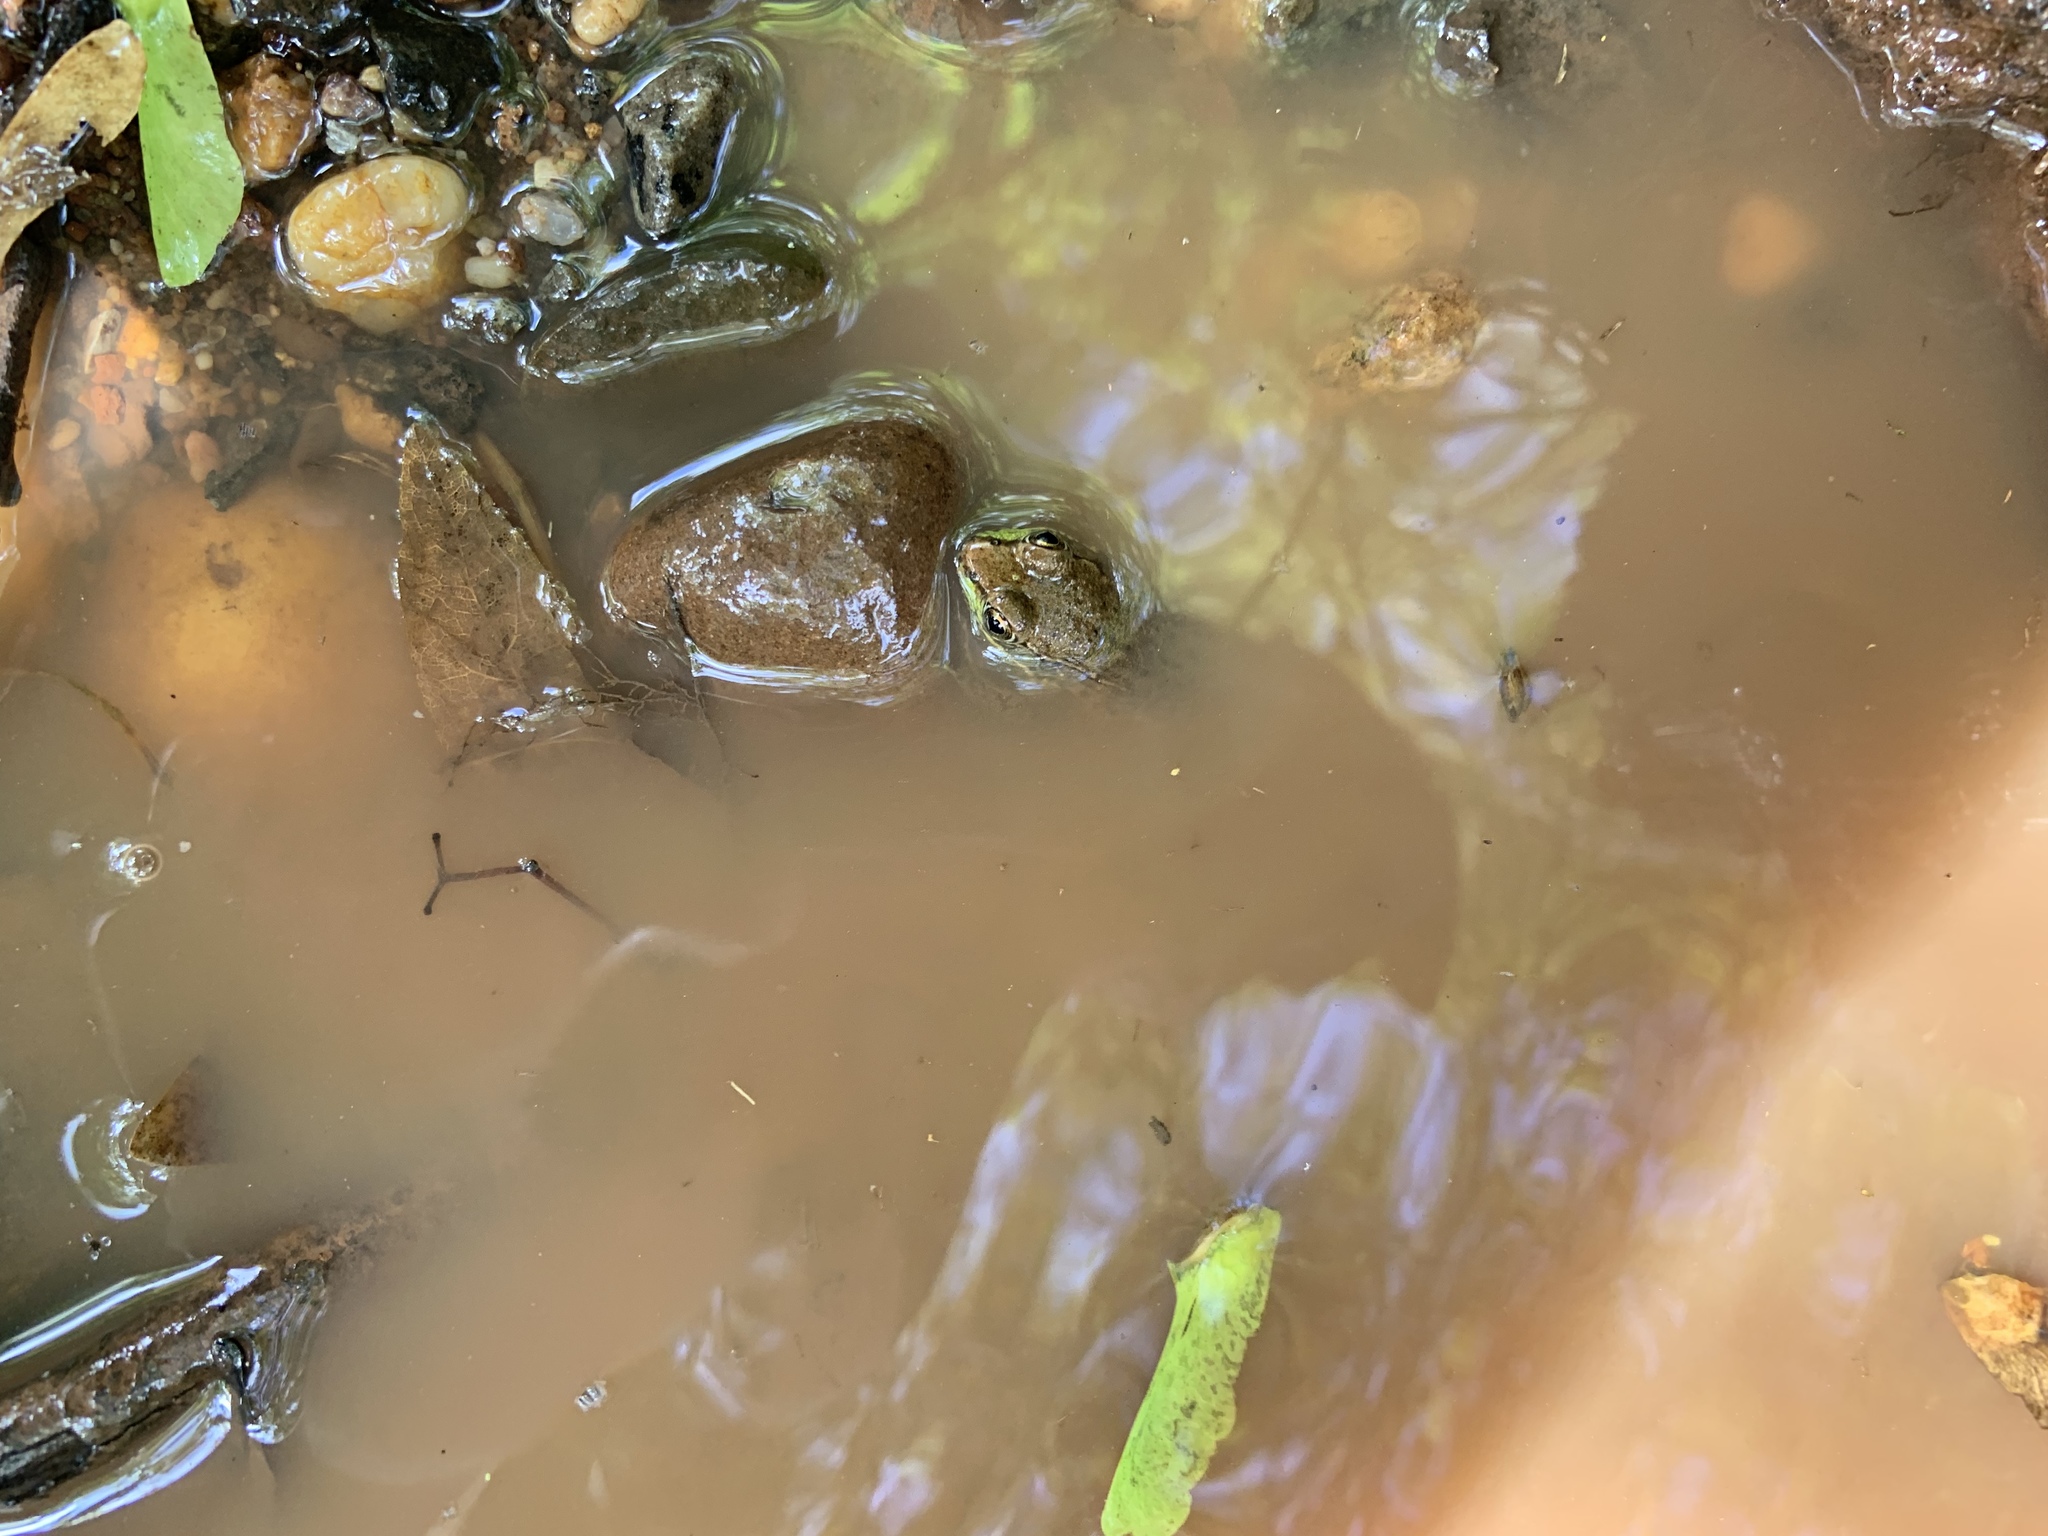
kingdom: Animalia
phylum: Chordata
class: Amphibia
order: Anura
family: Ranidae
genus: Lithobates
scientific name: Lithobates clamitans
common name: Green frog
